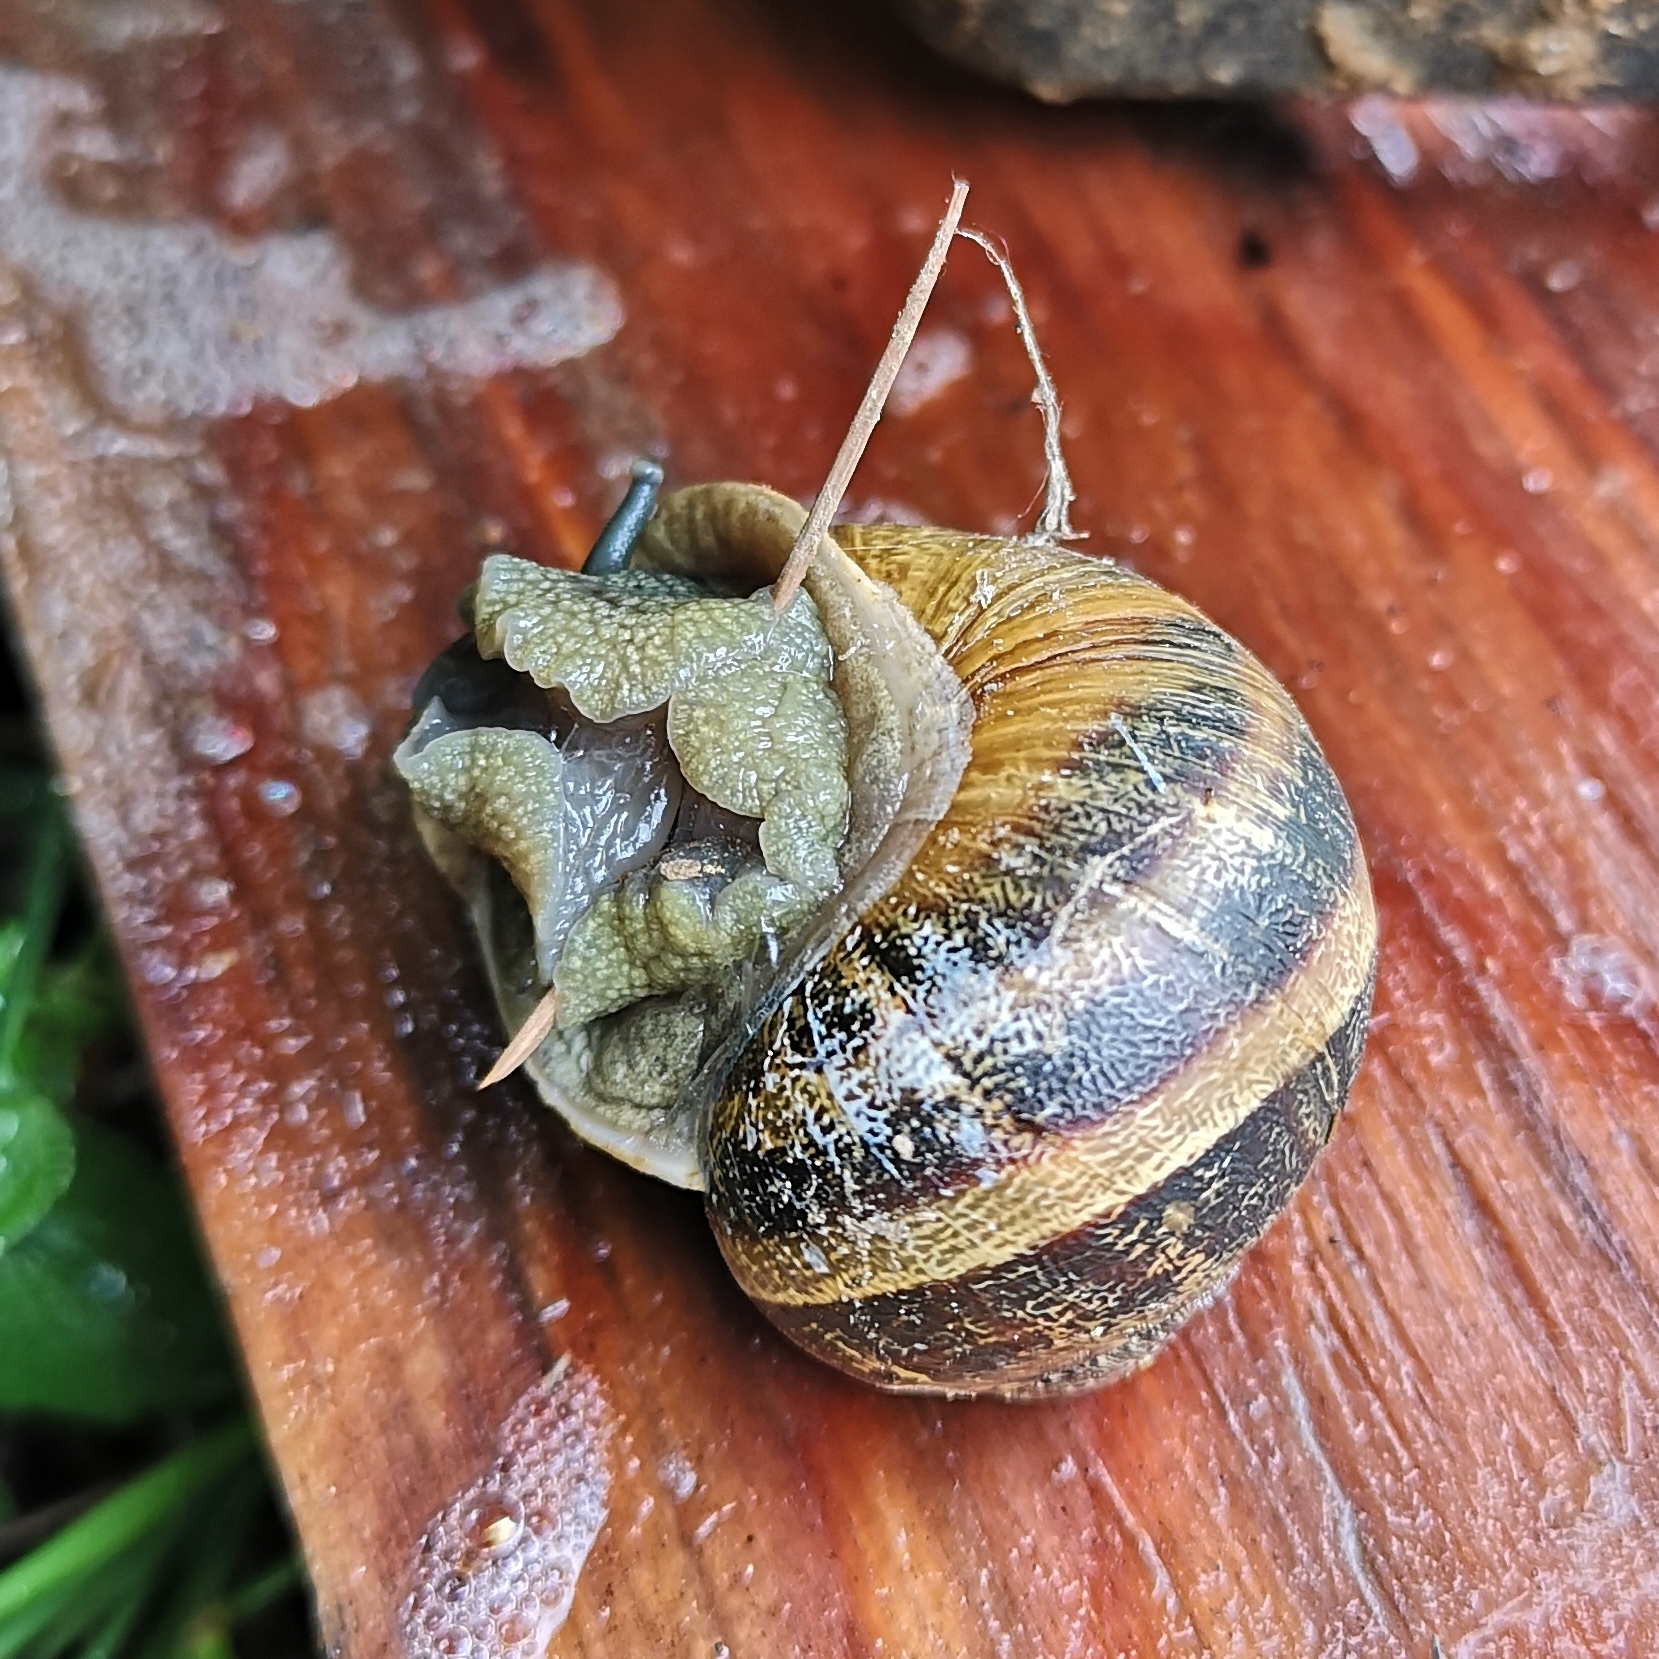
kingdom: Animalia
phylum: Mollusca
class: Gastropoda
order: Stylommatophora
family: Helicidae
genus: Cornu
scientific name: Cornu aspersum
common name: Brown garden snail
